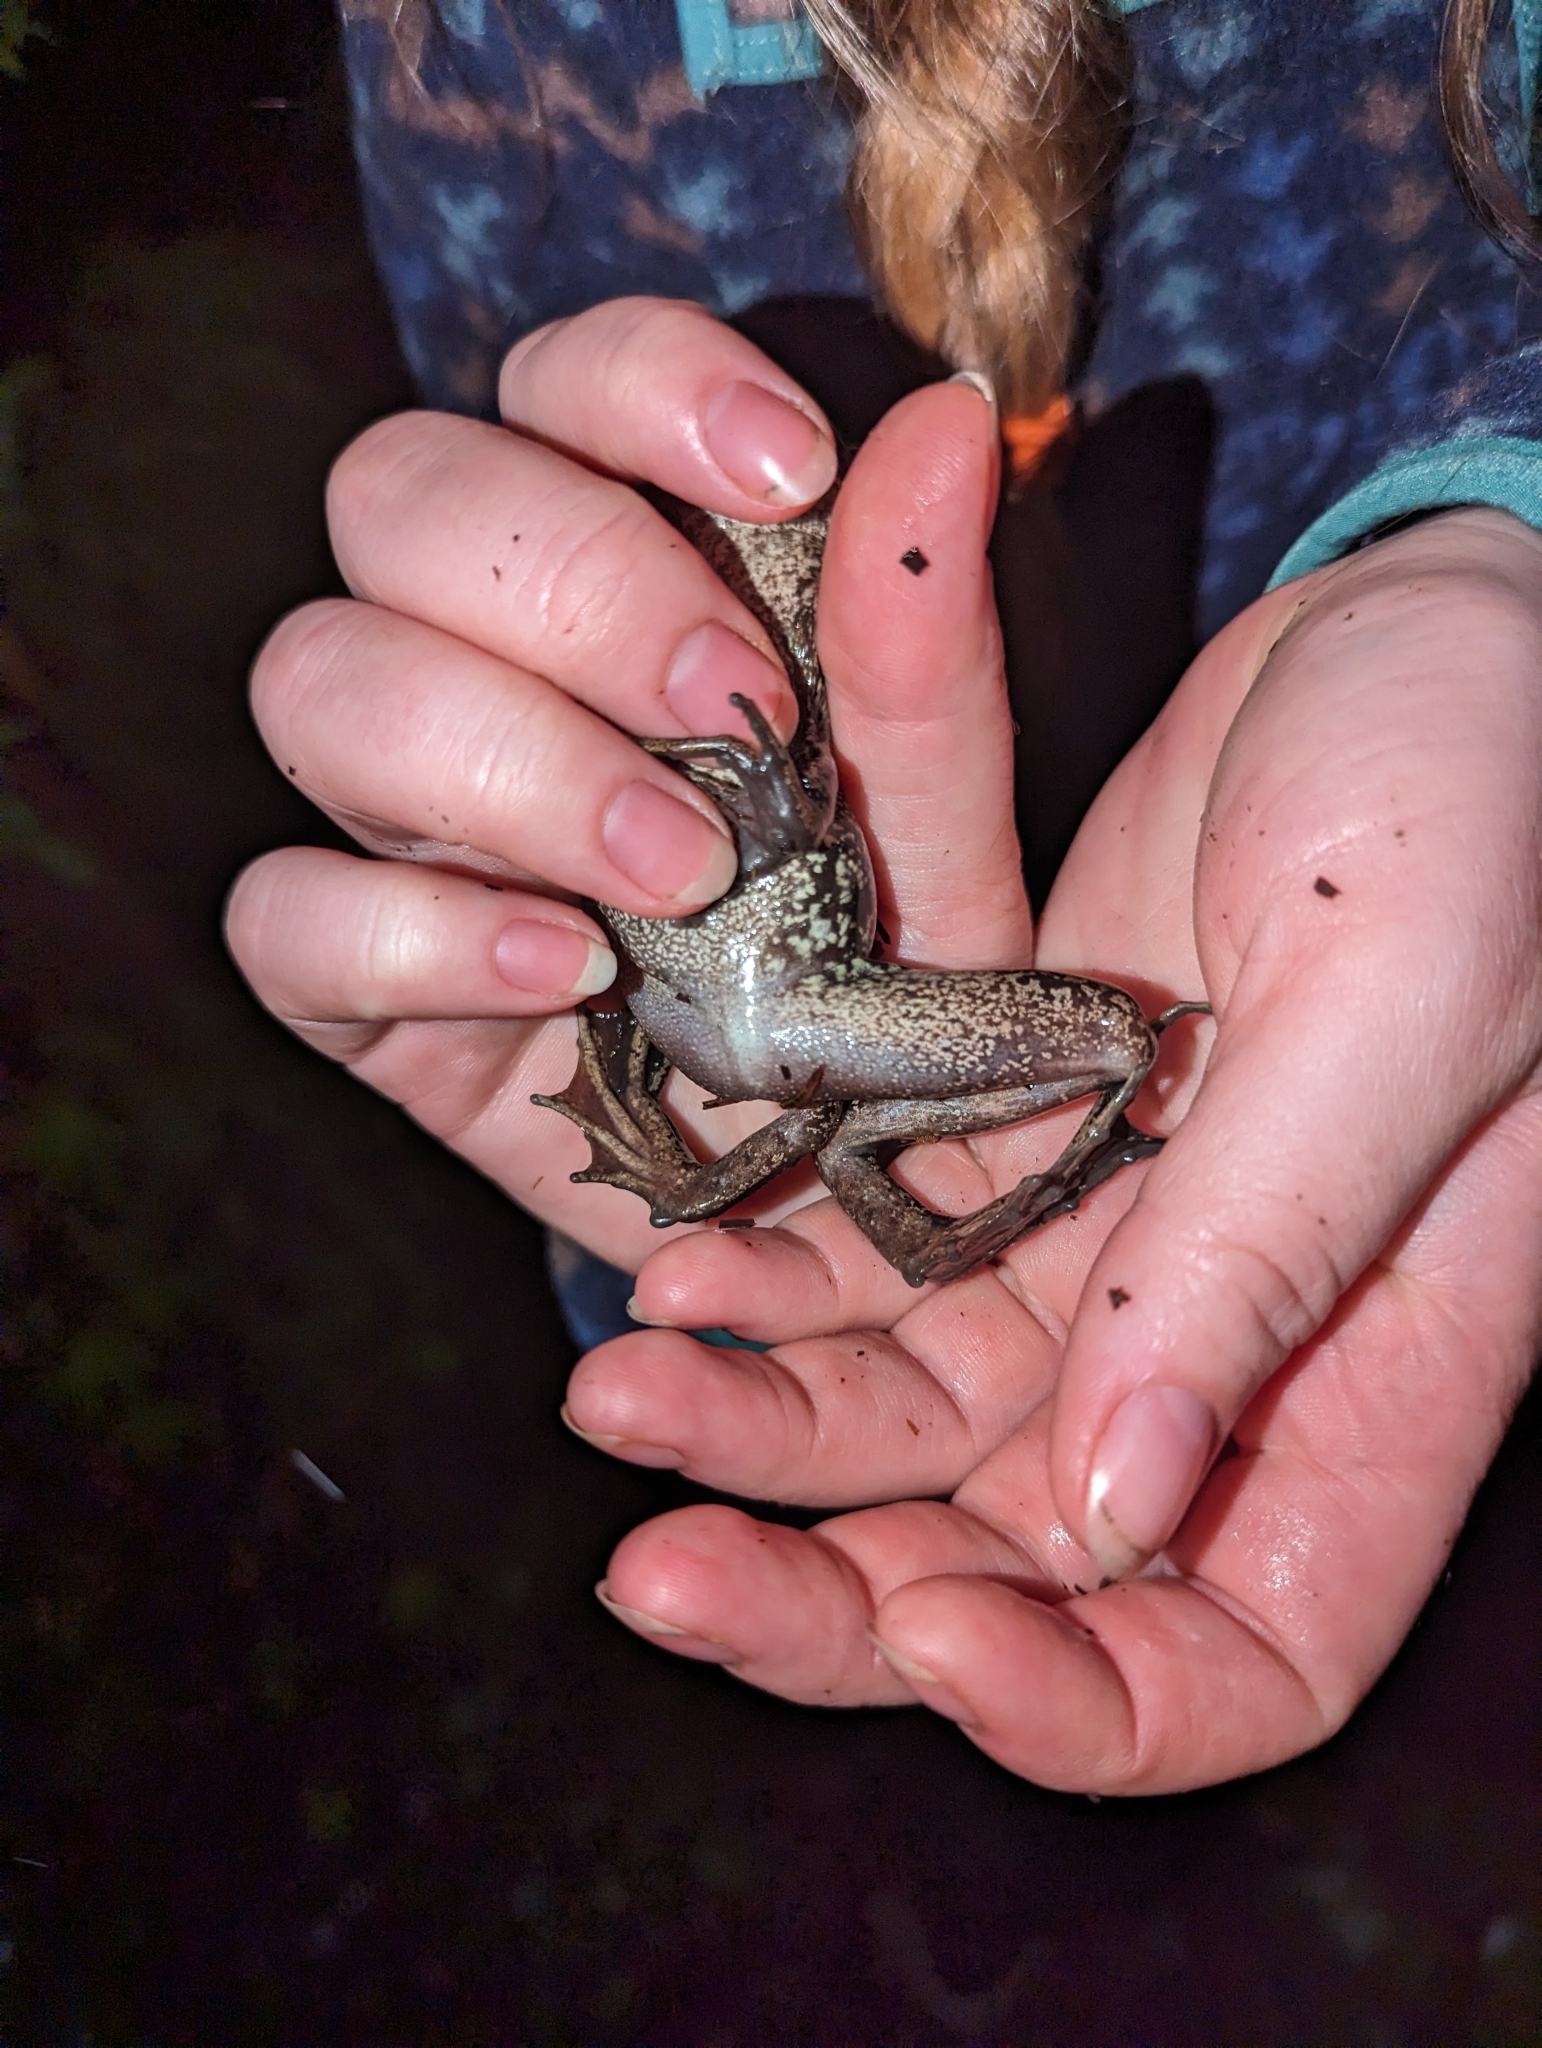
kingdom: Animalia
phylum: Chordata
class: Amphibia
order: Anura
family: Ranidae
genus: Rana
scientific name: Rana aurora
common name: Red-legged frog
